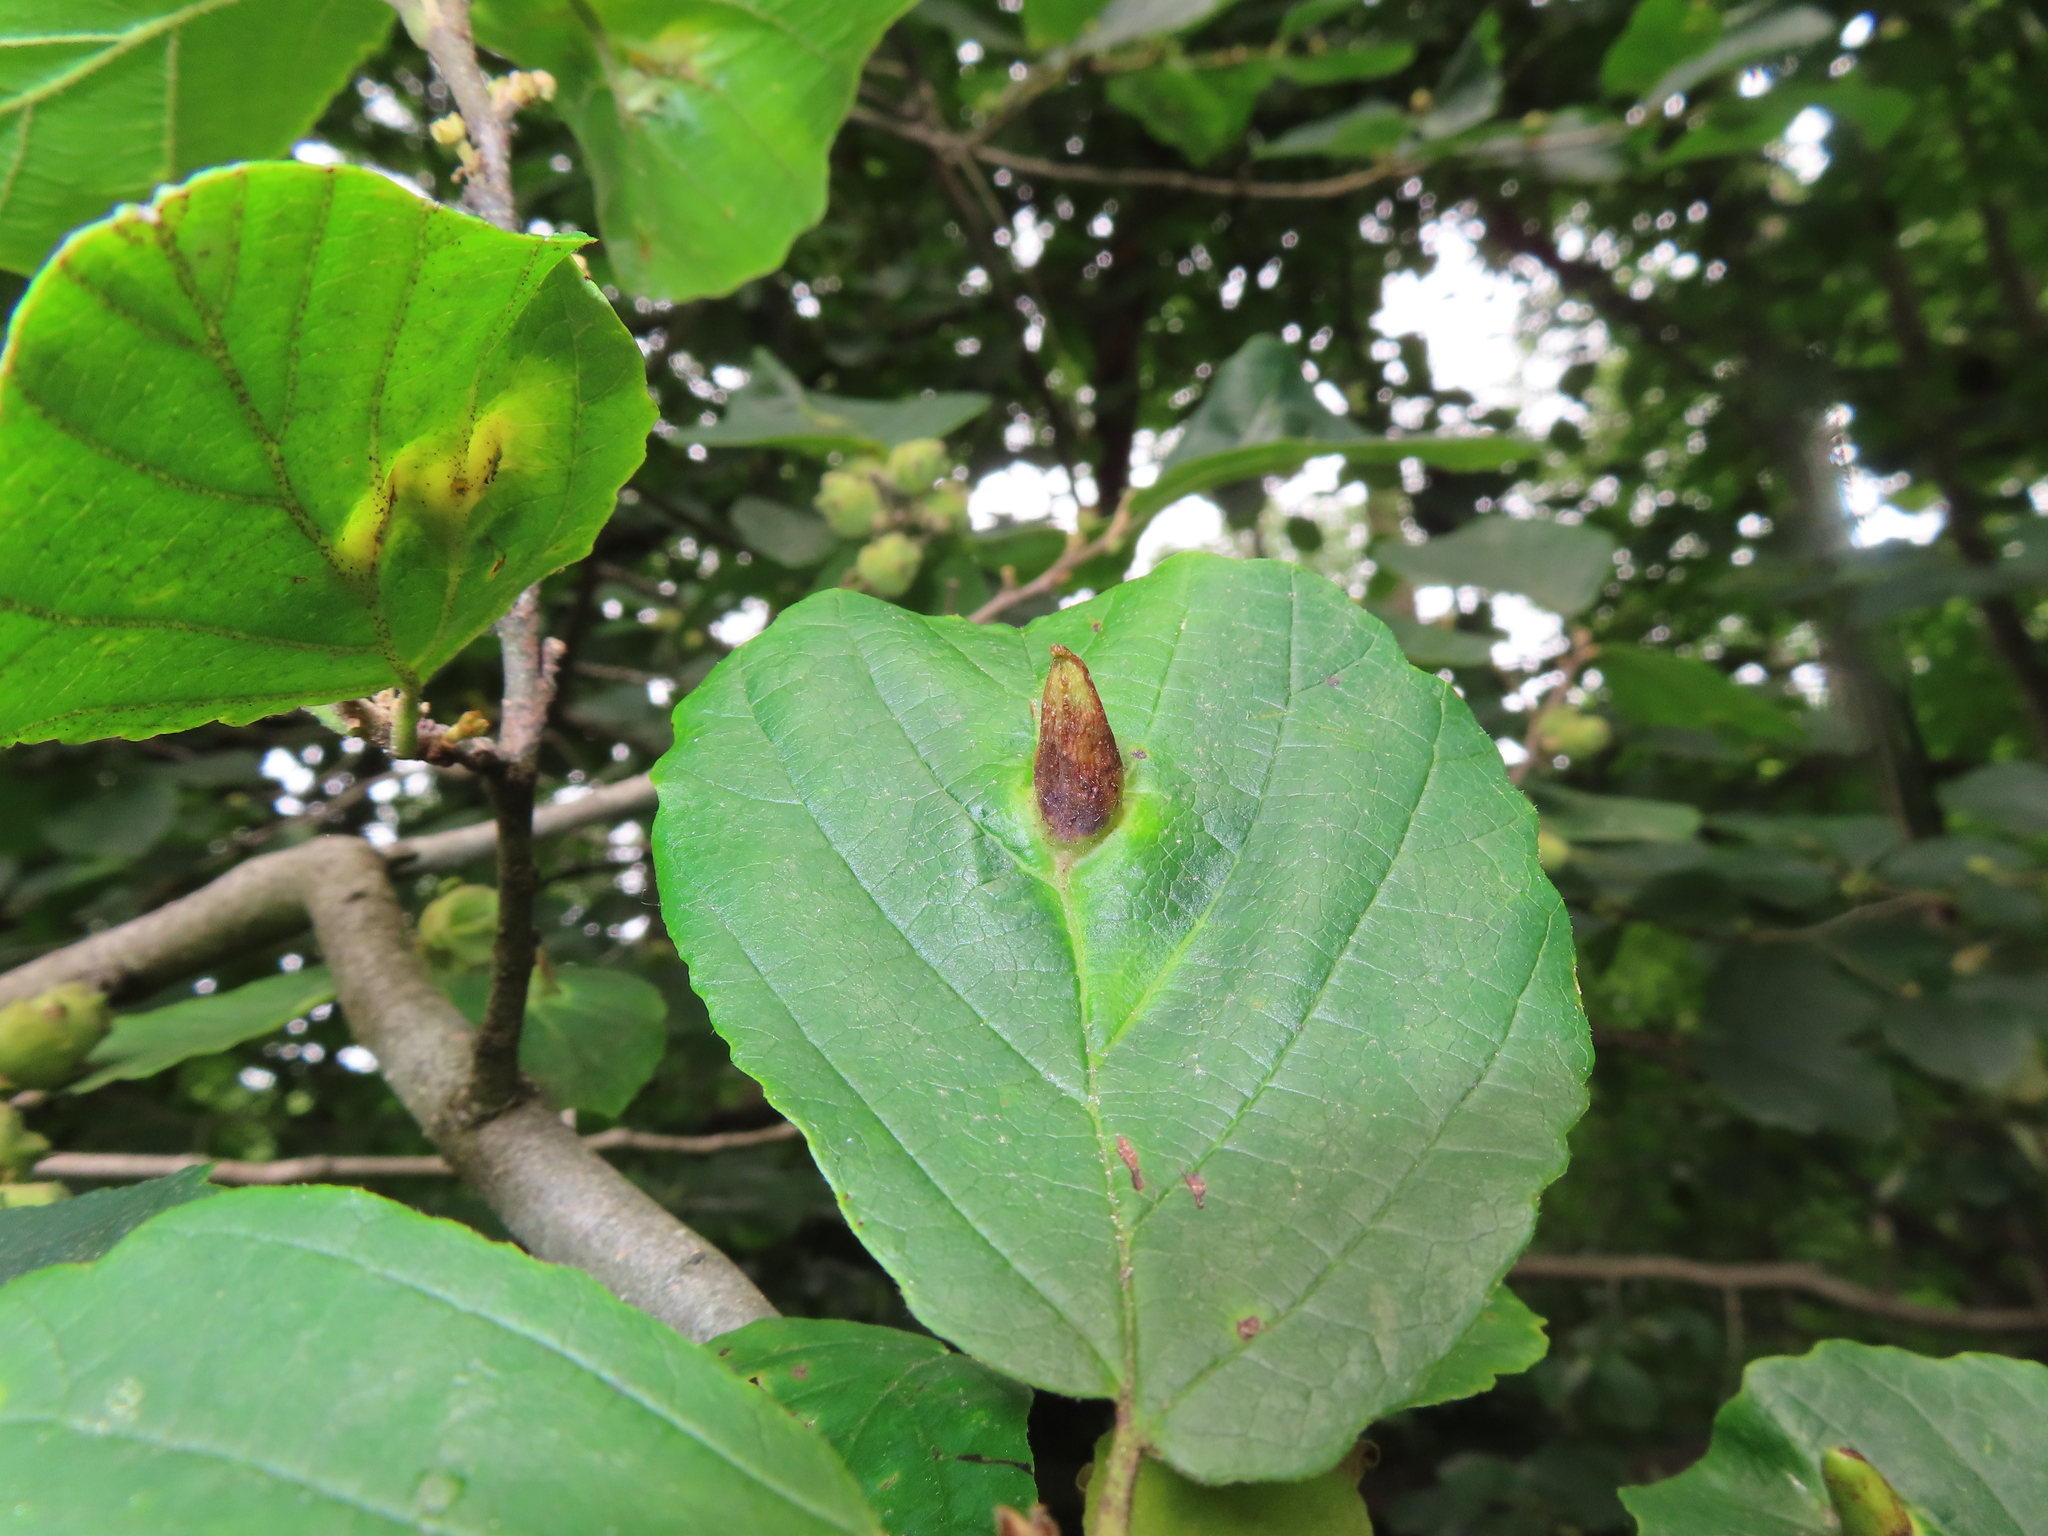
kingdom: Animalia
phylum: Arthropoda
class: Insecta
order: Hemiptera
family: Aphididae
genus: Hormaphis
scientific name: Hormaphis hamamelidis
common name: Witch-hazel cone gall aphid
